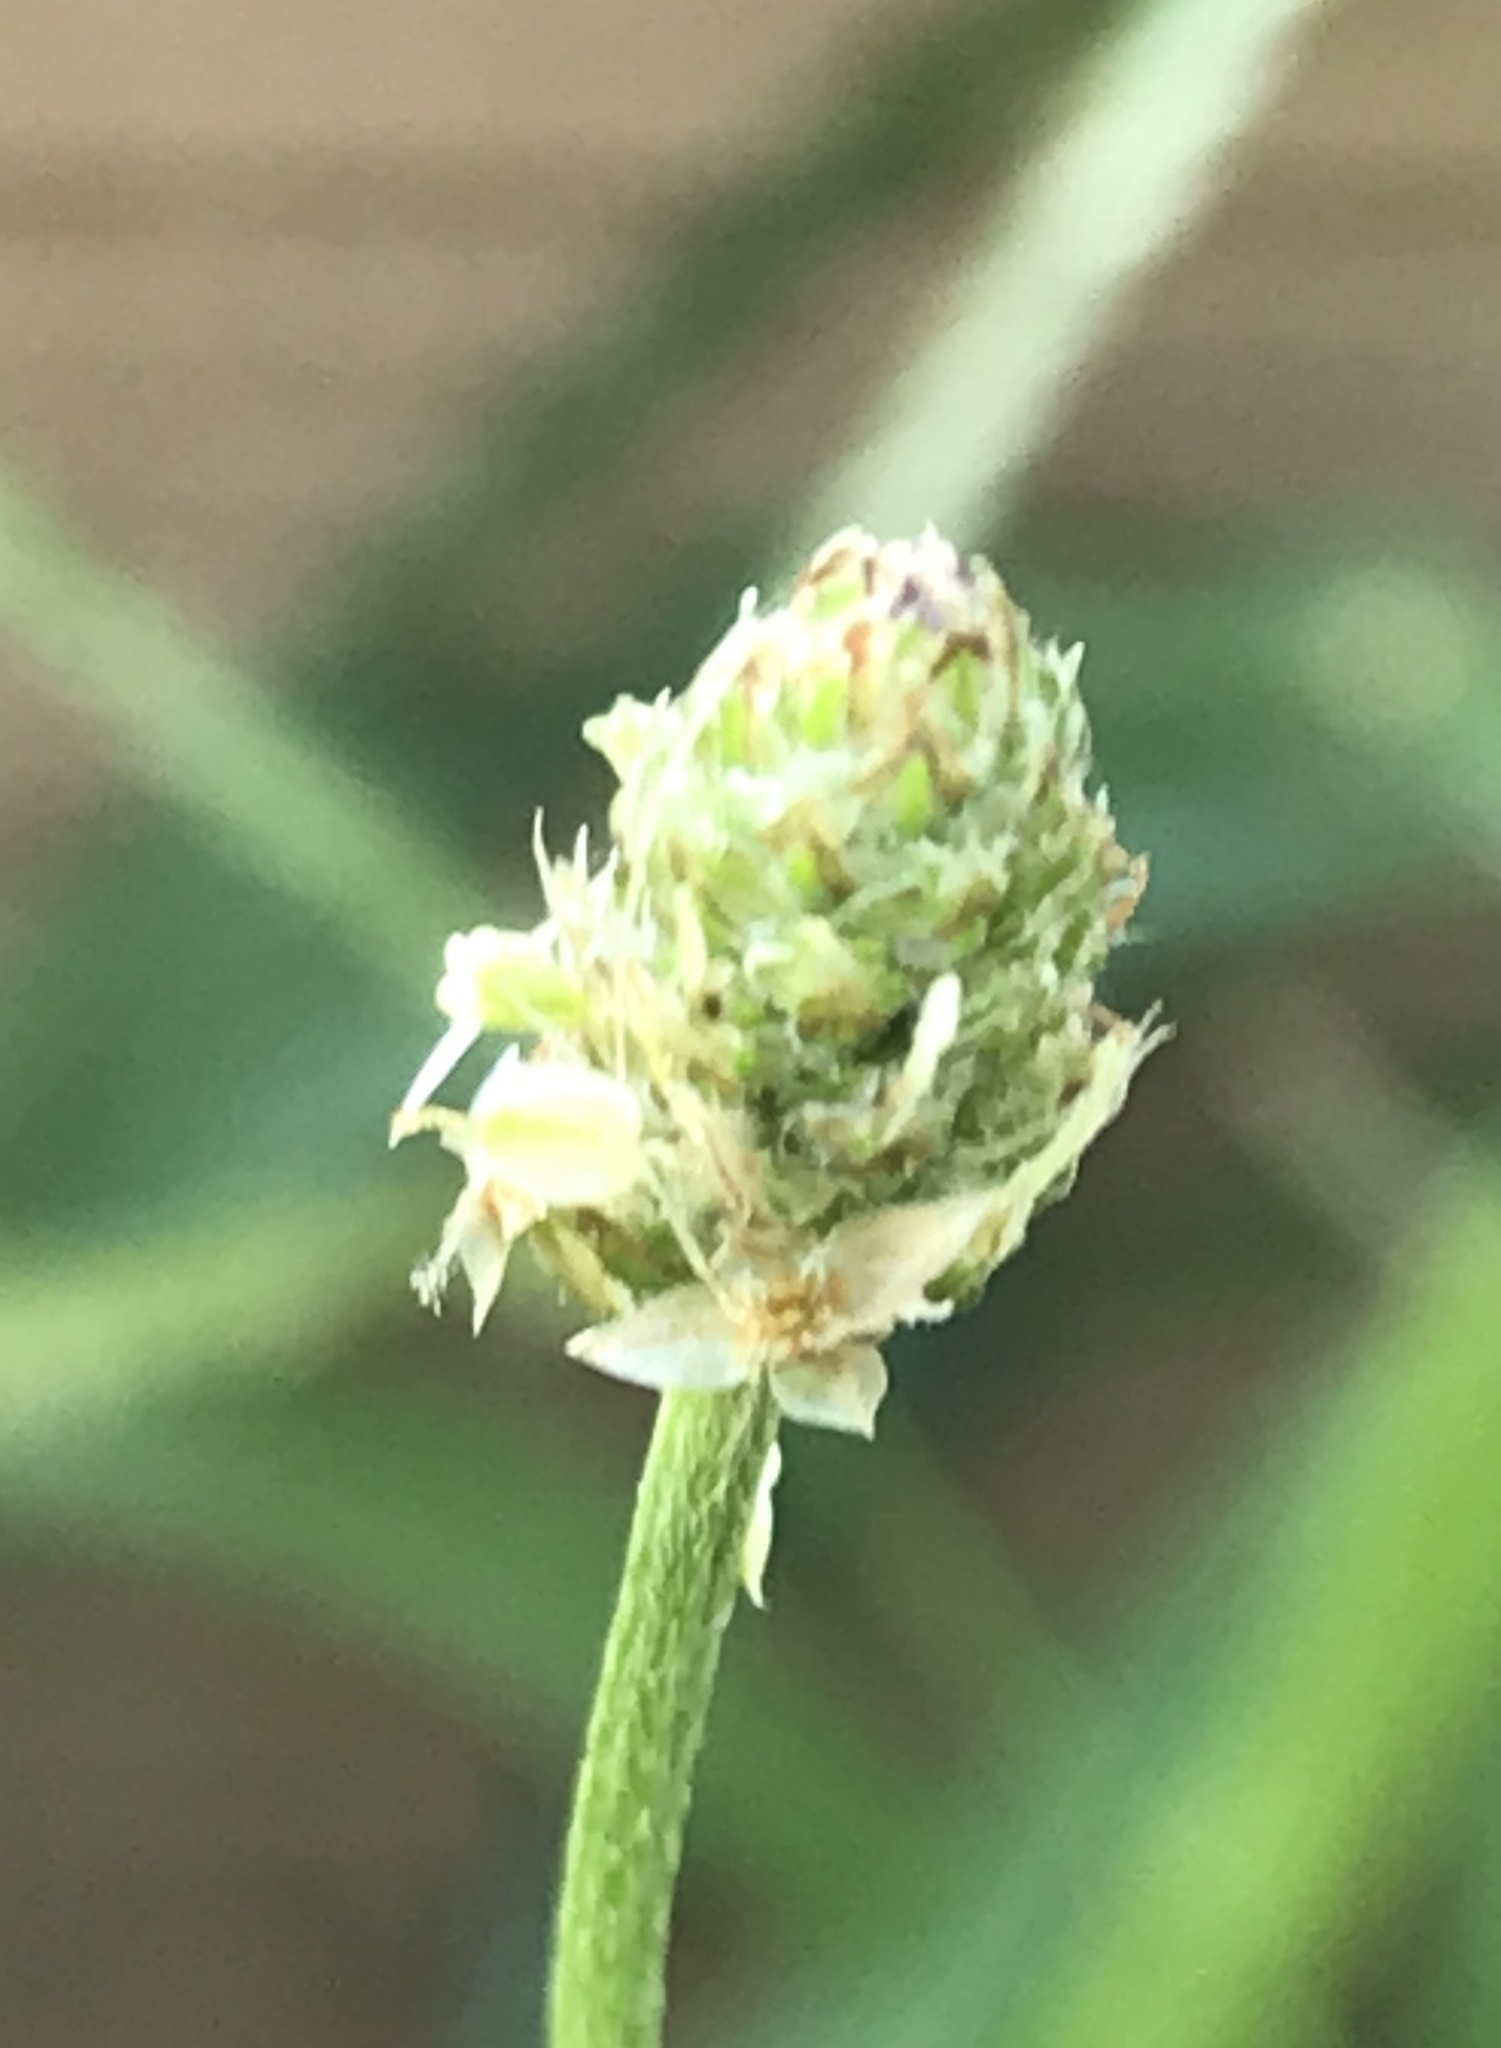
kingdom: Plantae
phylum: Tracheophyta
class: Magnoliopsida
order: Lamiales
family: Plantaginaceae
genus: Plantago
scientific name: Plantago lanceolata
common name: Ribwort plantain
